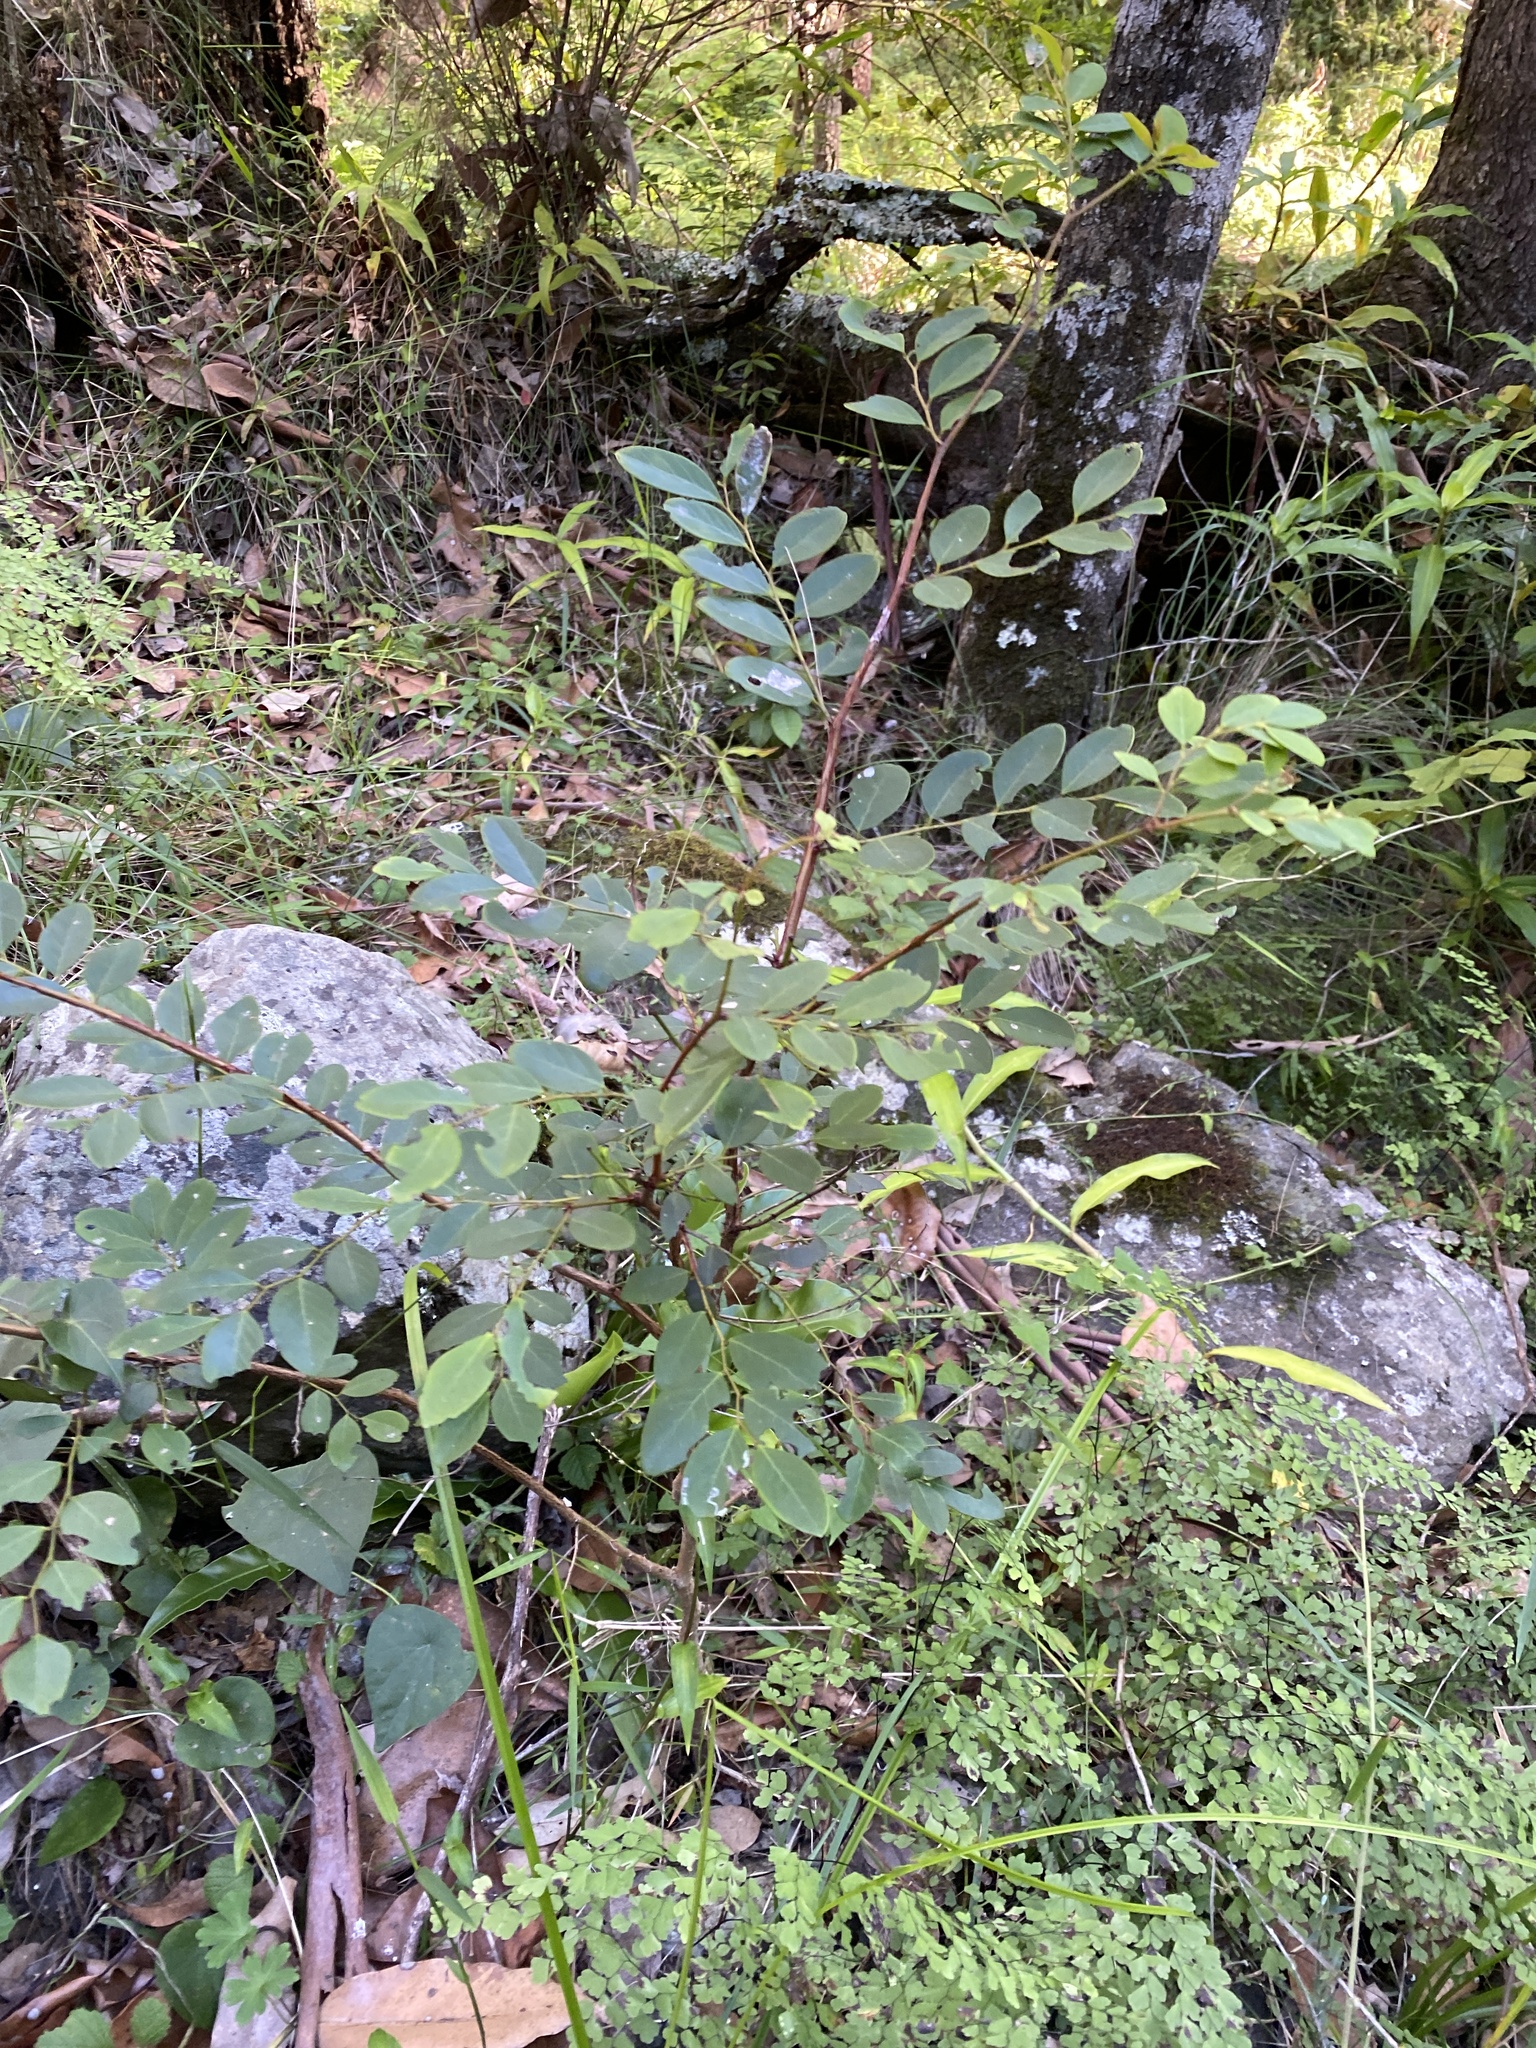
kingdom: Plantae
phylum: Tracheophyta
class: Magnoliopsida
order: Malpighiales
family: Phyllanthaceae
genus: Breynia
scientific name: Breynia oblongifolia
